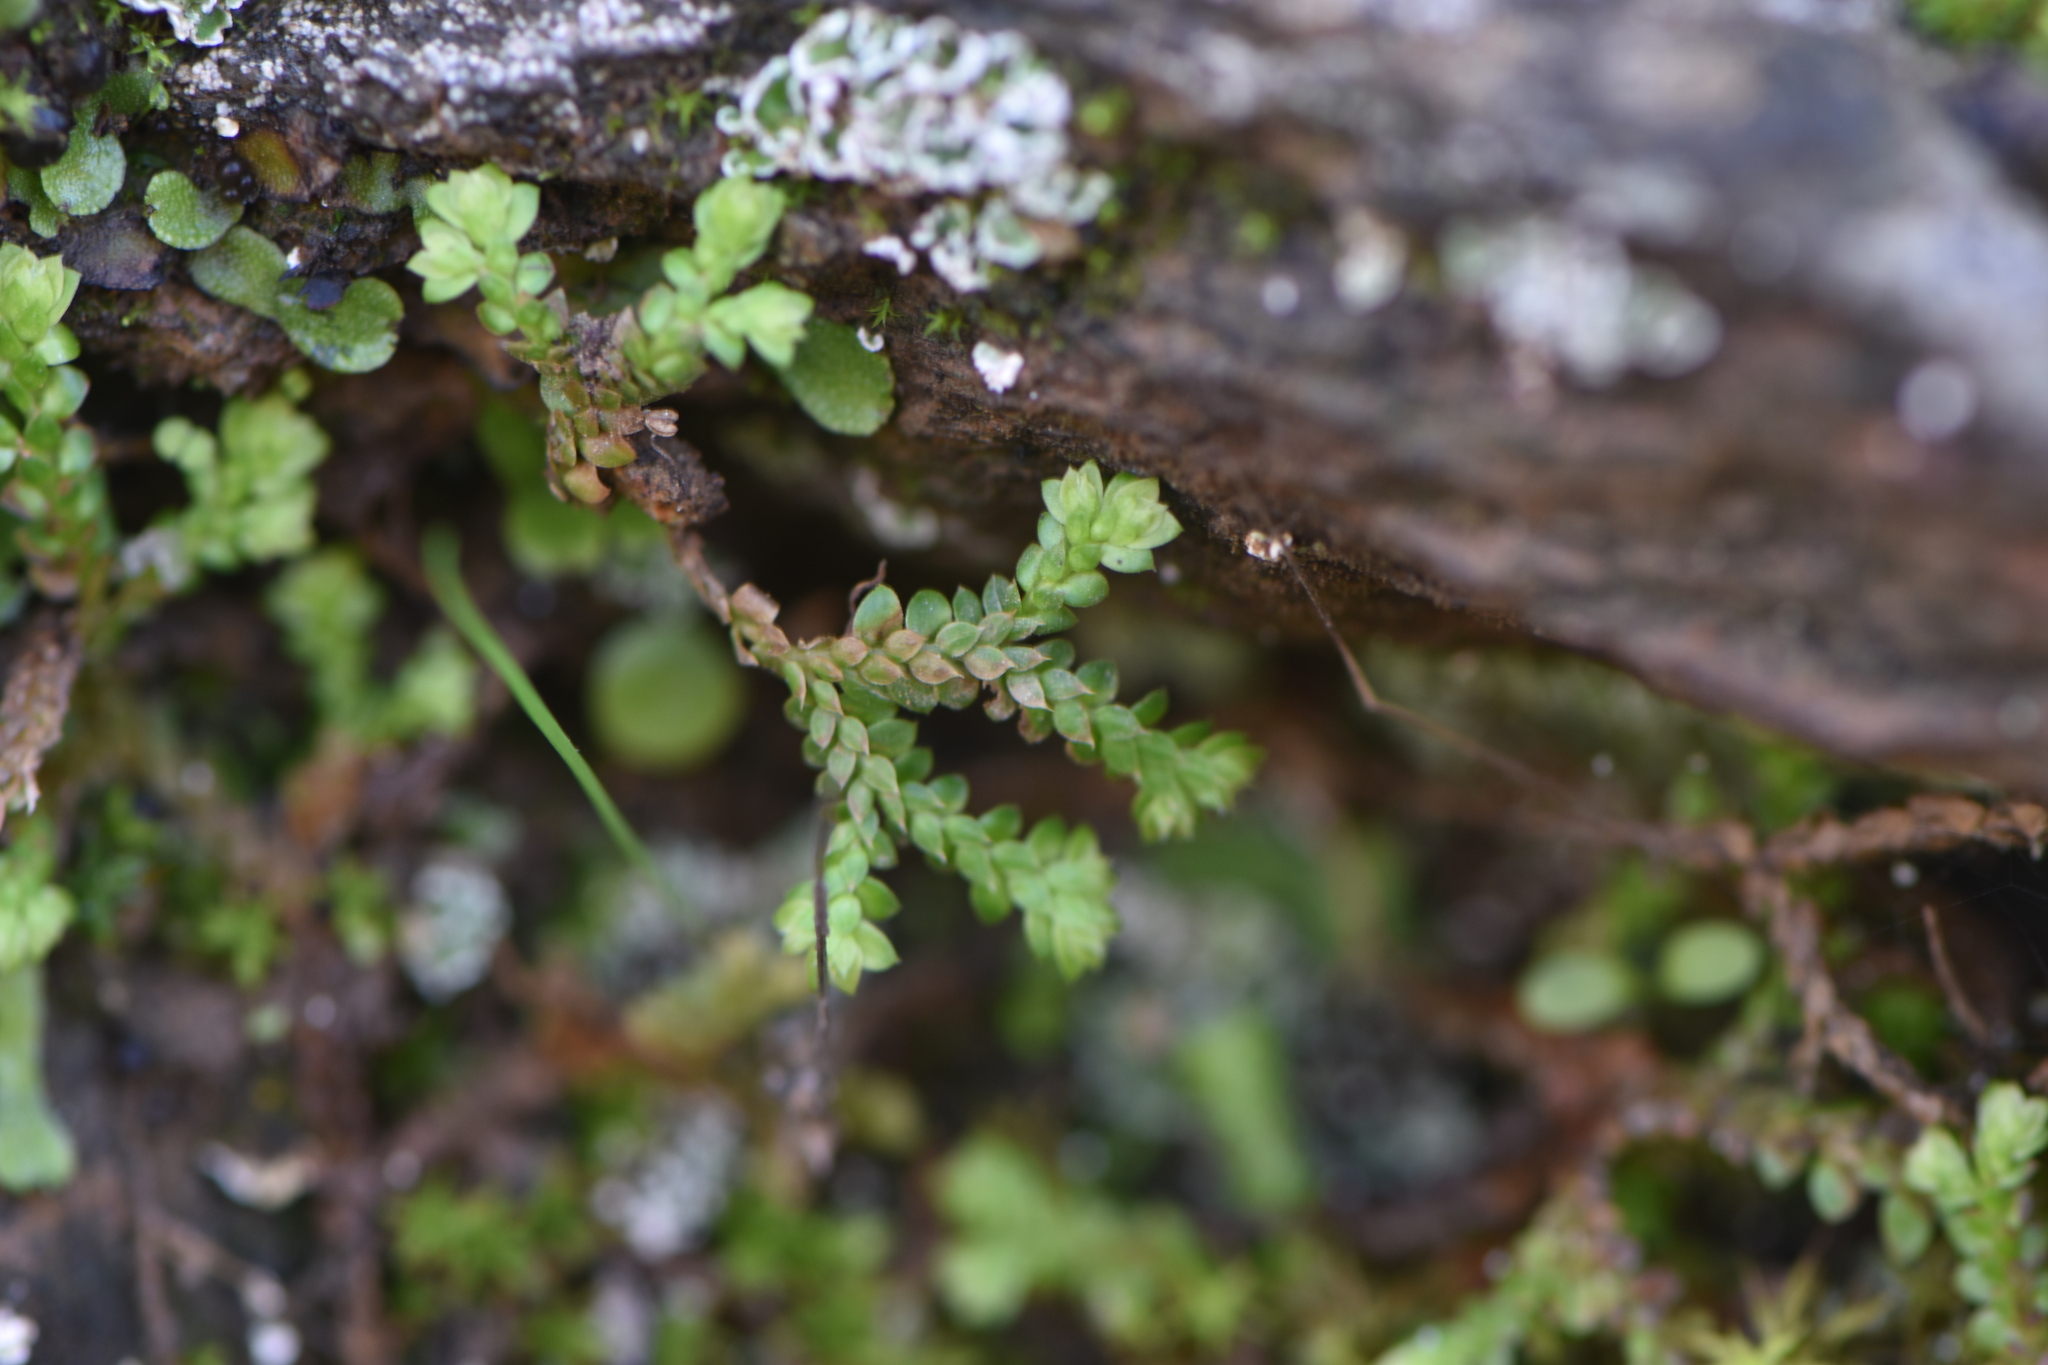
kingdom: Plantae
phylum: Tracheophyta
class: Lycopodiopsida
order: Selaginellales
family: Selaginellaceae
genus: Selaginella
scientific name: Selaginella denticulata
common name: Toothed-leaved clubmoss
